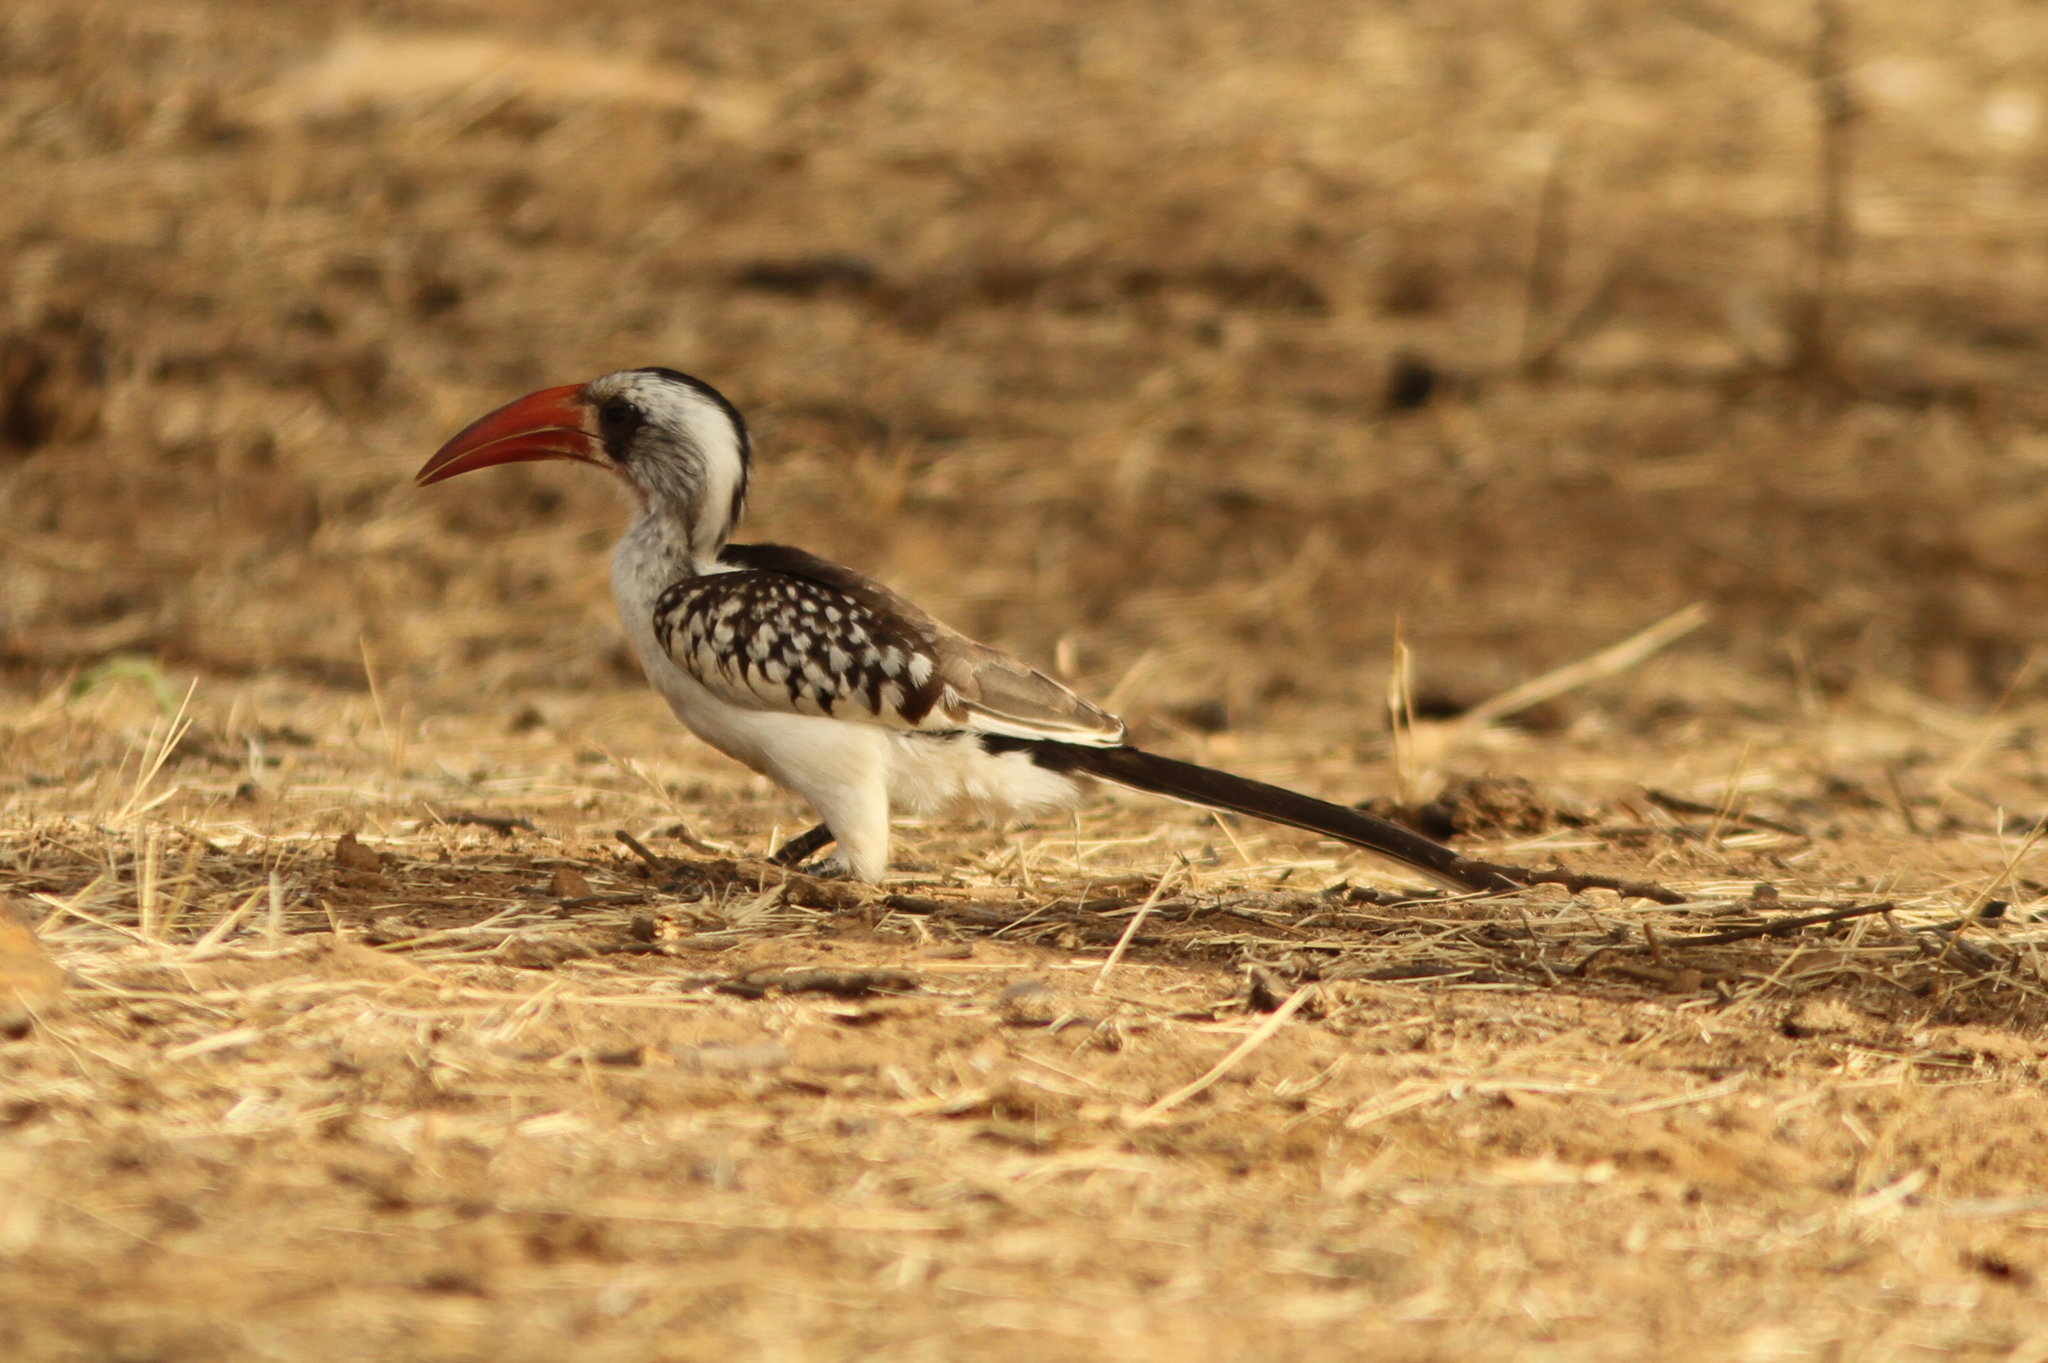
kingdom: Animalia
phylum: Chordata
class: Aves
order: Bucerotiformes
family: Bucerotidae
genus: Tockus
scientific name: Tockus kempi
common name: Western red-billed hornbill
